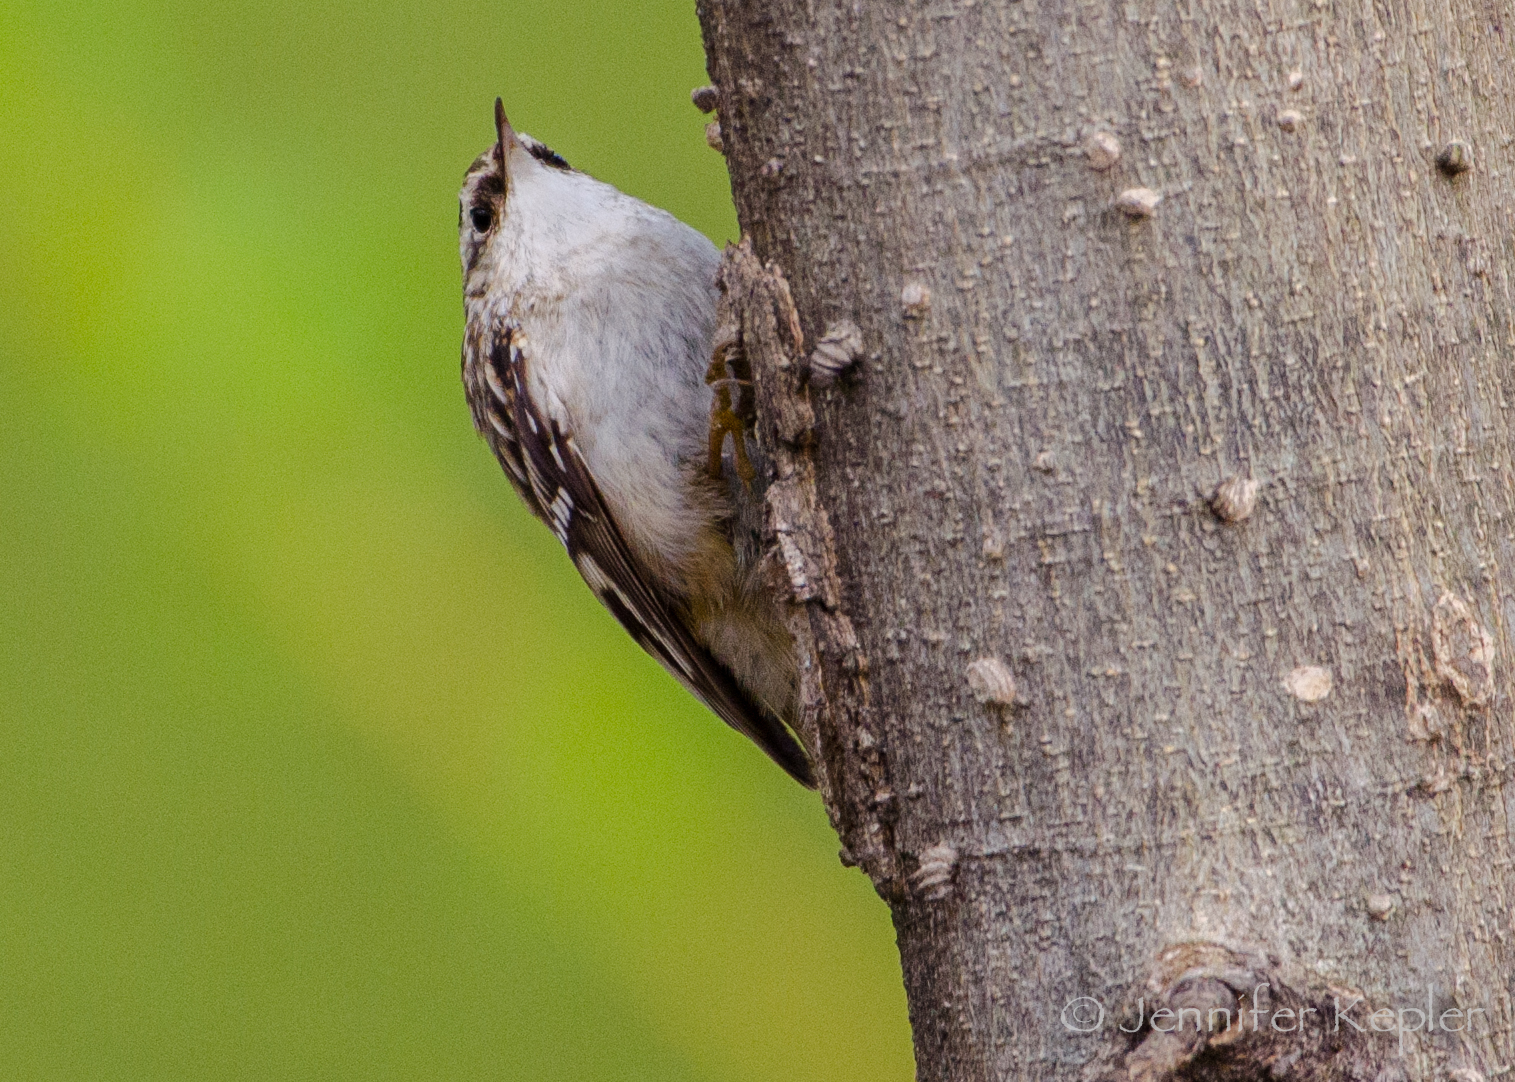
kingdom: Animalia
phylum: Chordata
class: Aves
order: Passeriformes
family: Certhiidae
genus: Certhia
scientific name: Certhia americana
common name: Brown creeper
